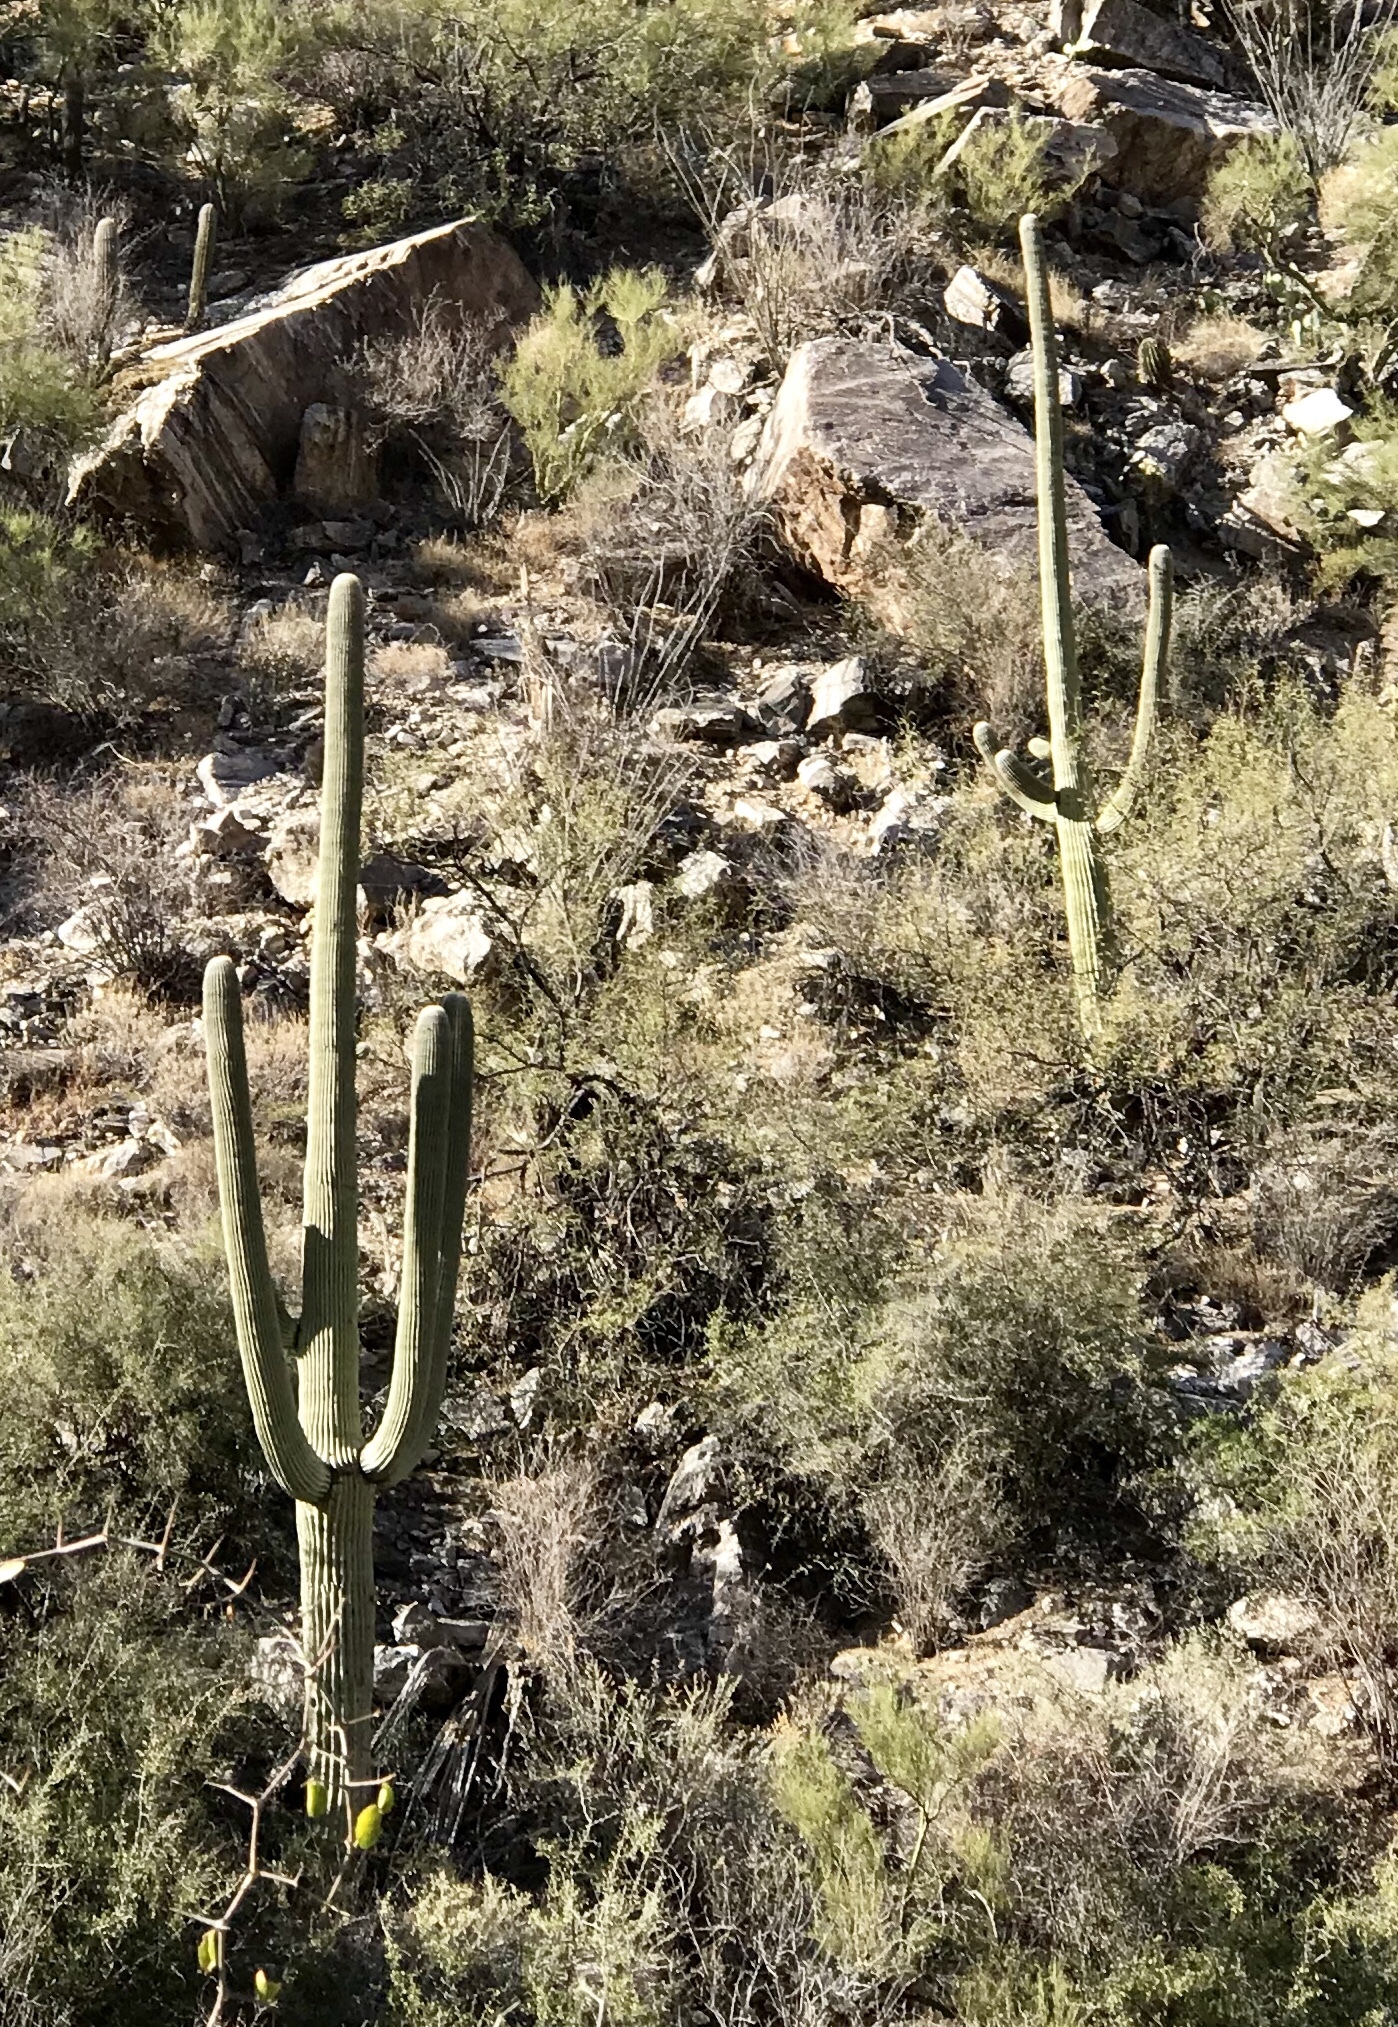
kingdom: Plantae
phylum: Tracheophyta
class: Magnoliopsida
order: Caryophyllales
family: Cactaceae
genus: Carnegiea
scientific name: Carnegiea gigantea
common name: Saguaro
